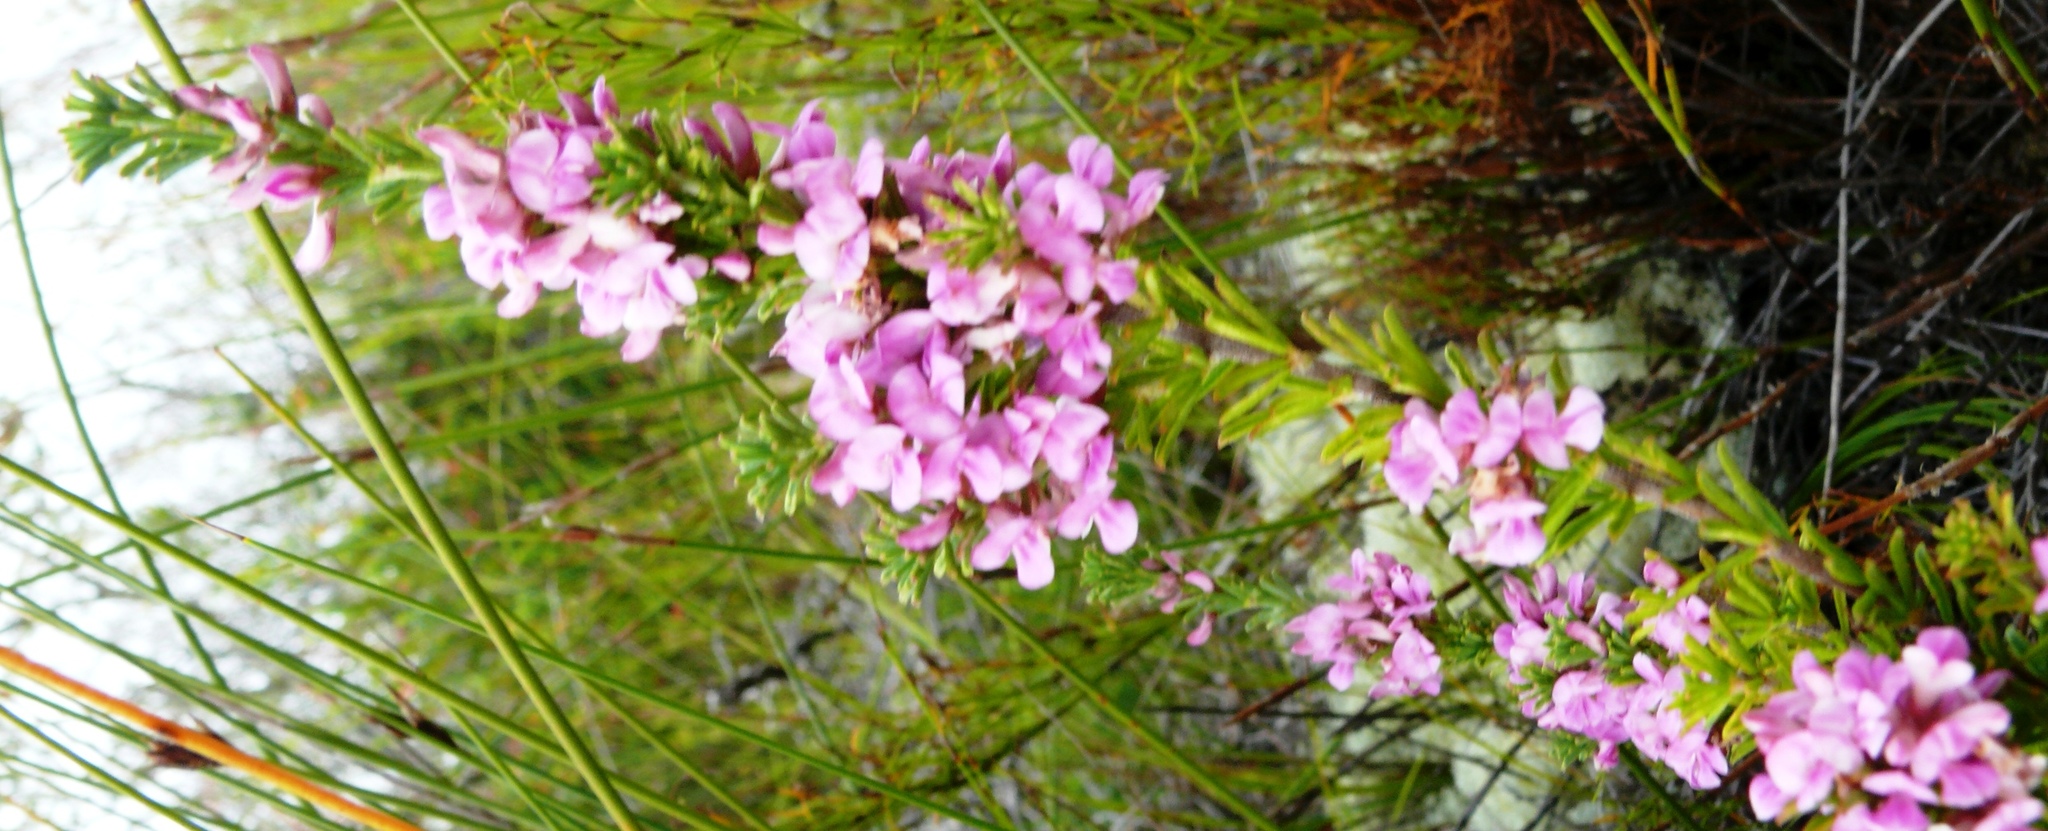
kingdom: Plantae
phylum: Tracheophyta
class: Magnoliopsida
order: Fabales
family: Fabaceae
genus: Indigofera
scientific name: Indigofera flabellata
